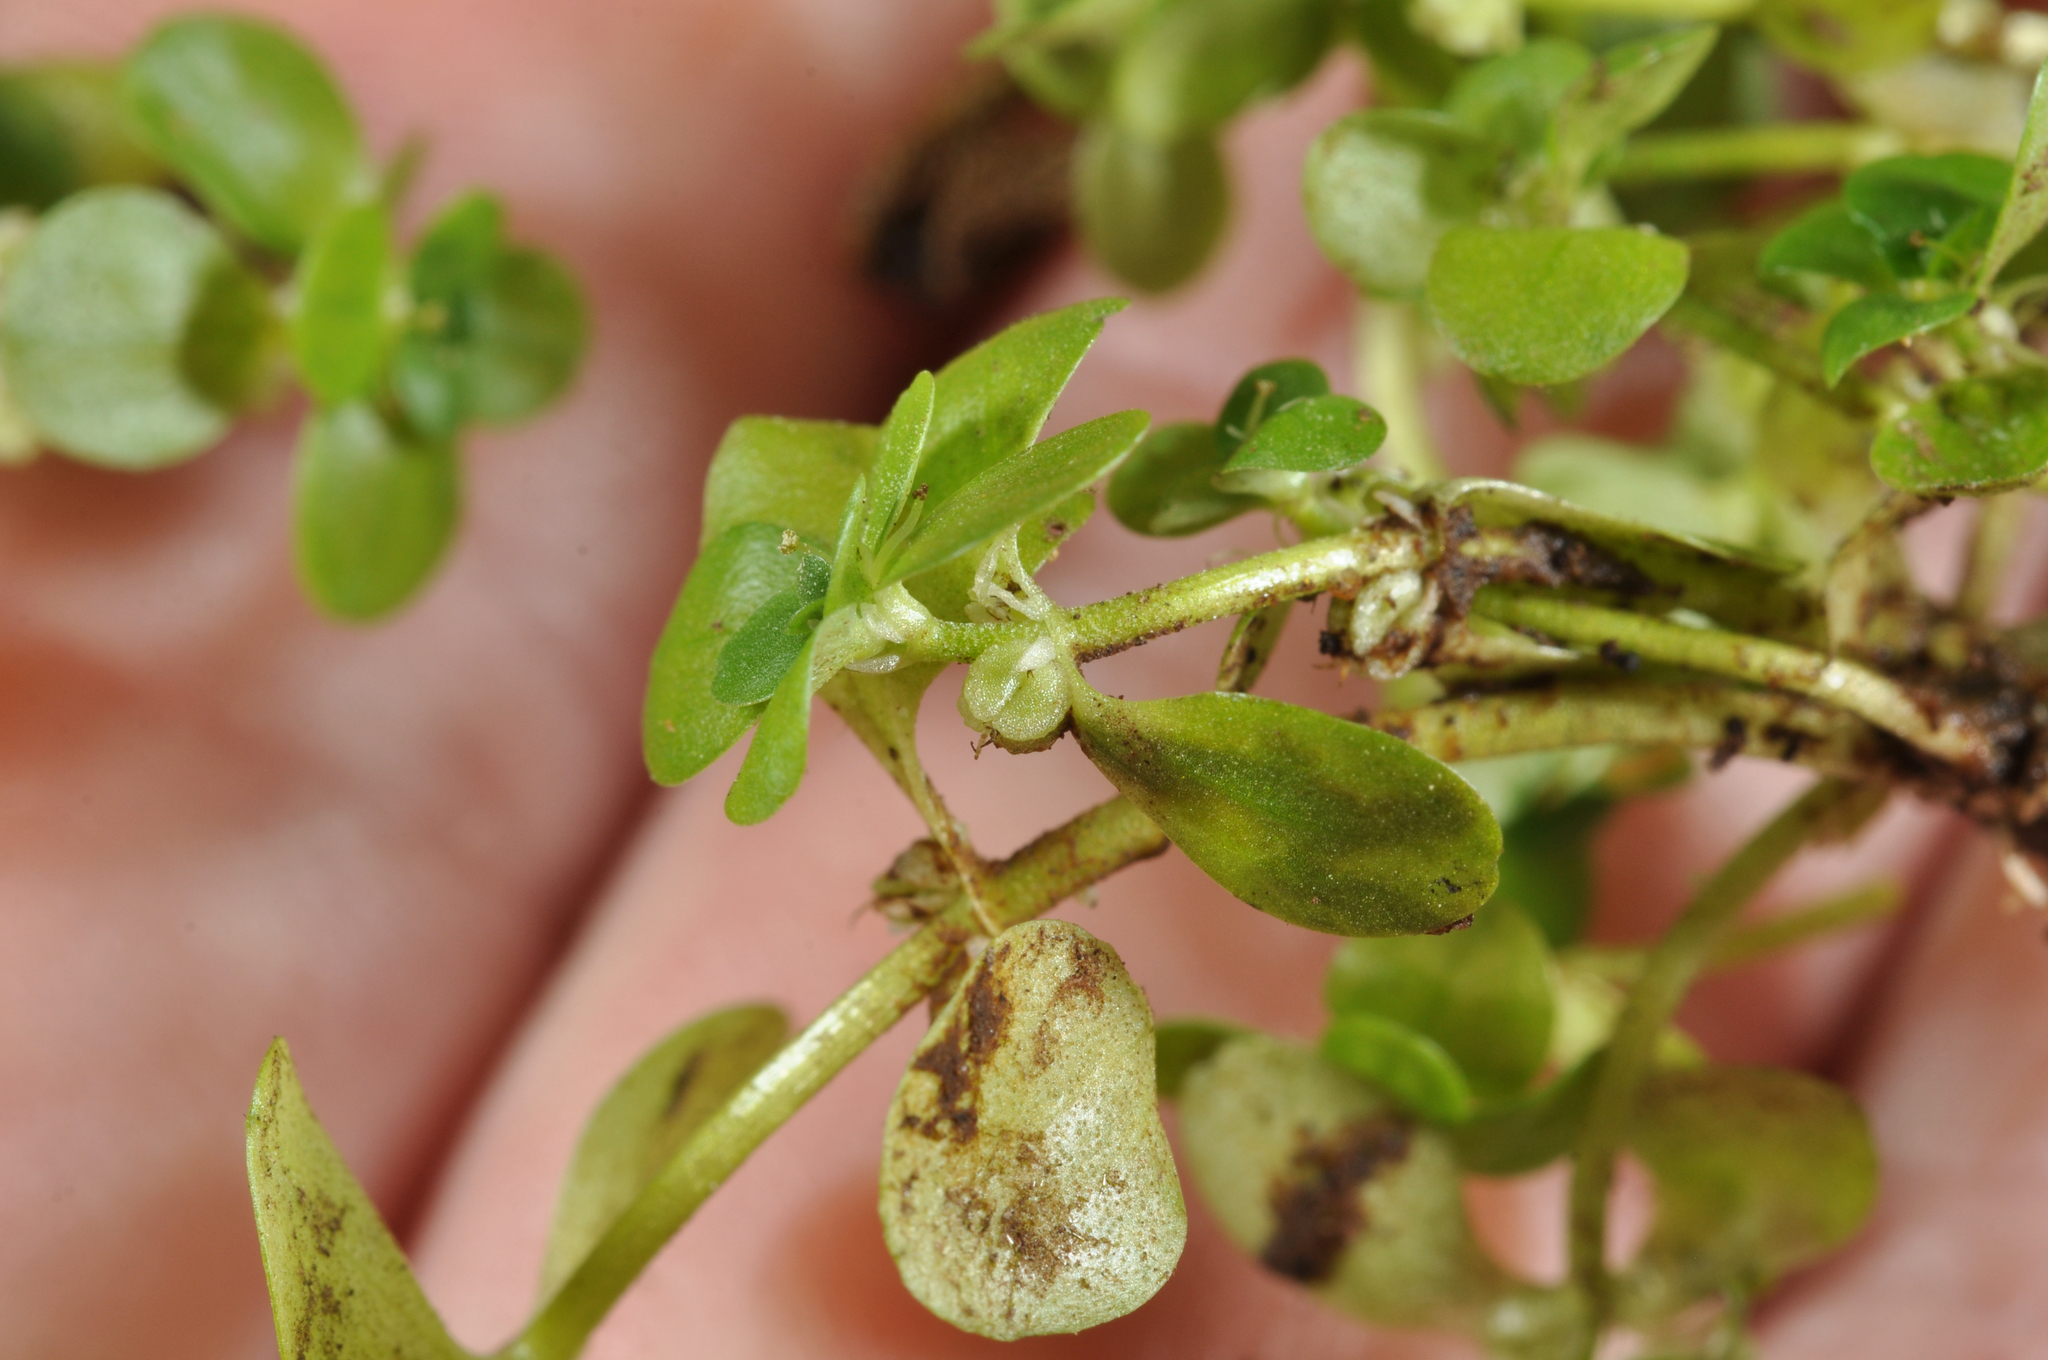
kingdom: Plantae
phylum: Tracheophyta
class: Magnoliopsida
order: Lamiales
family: Plantaginaceae
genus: Callitriche
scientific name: Callitriche stagnalis
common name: Common water-starwort
